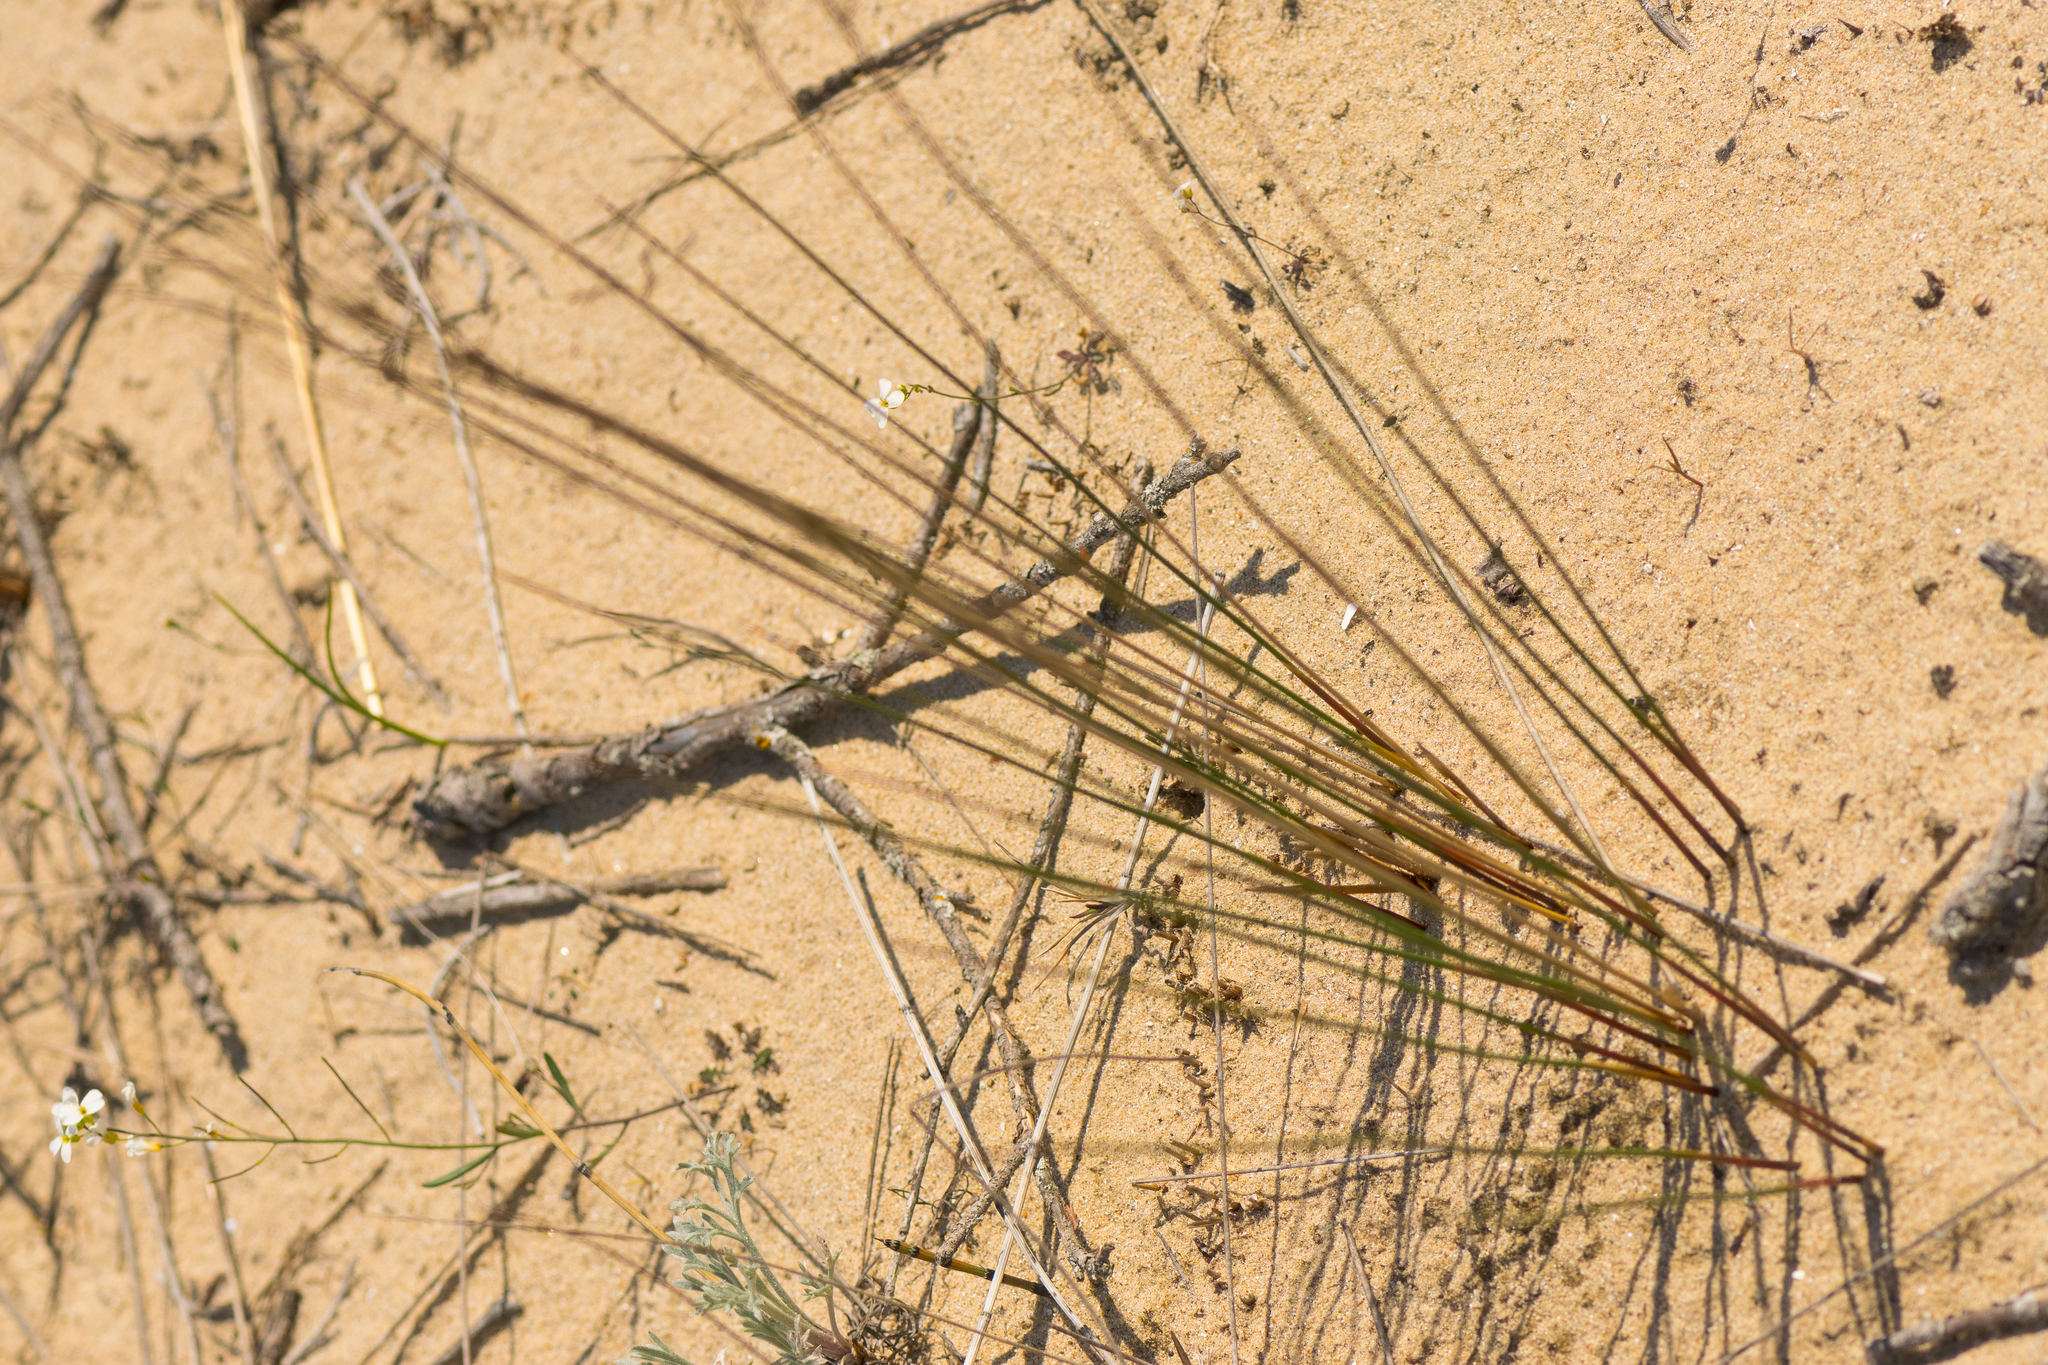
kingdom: Plantae
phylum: Tracheophyta
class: Liliopsida
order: Poales
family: Juncaceae
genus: Juncus
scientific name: Juncus balticus
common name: Baltic rush
